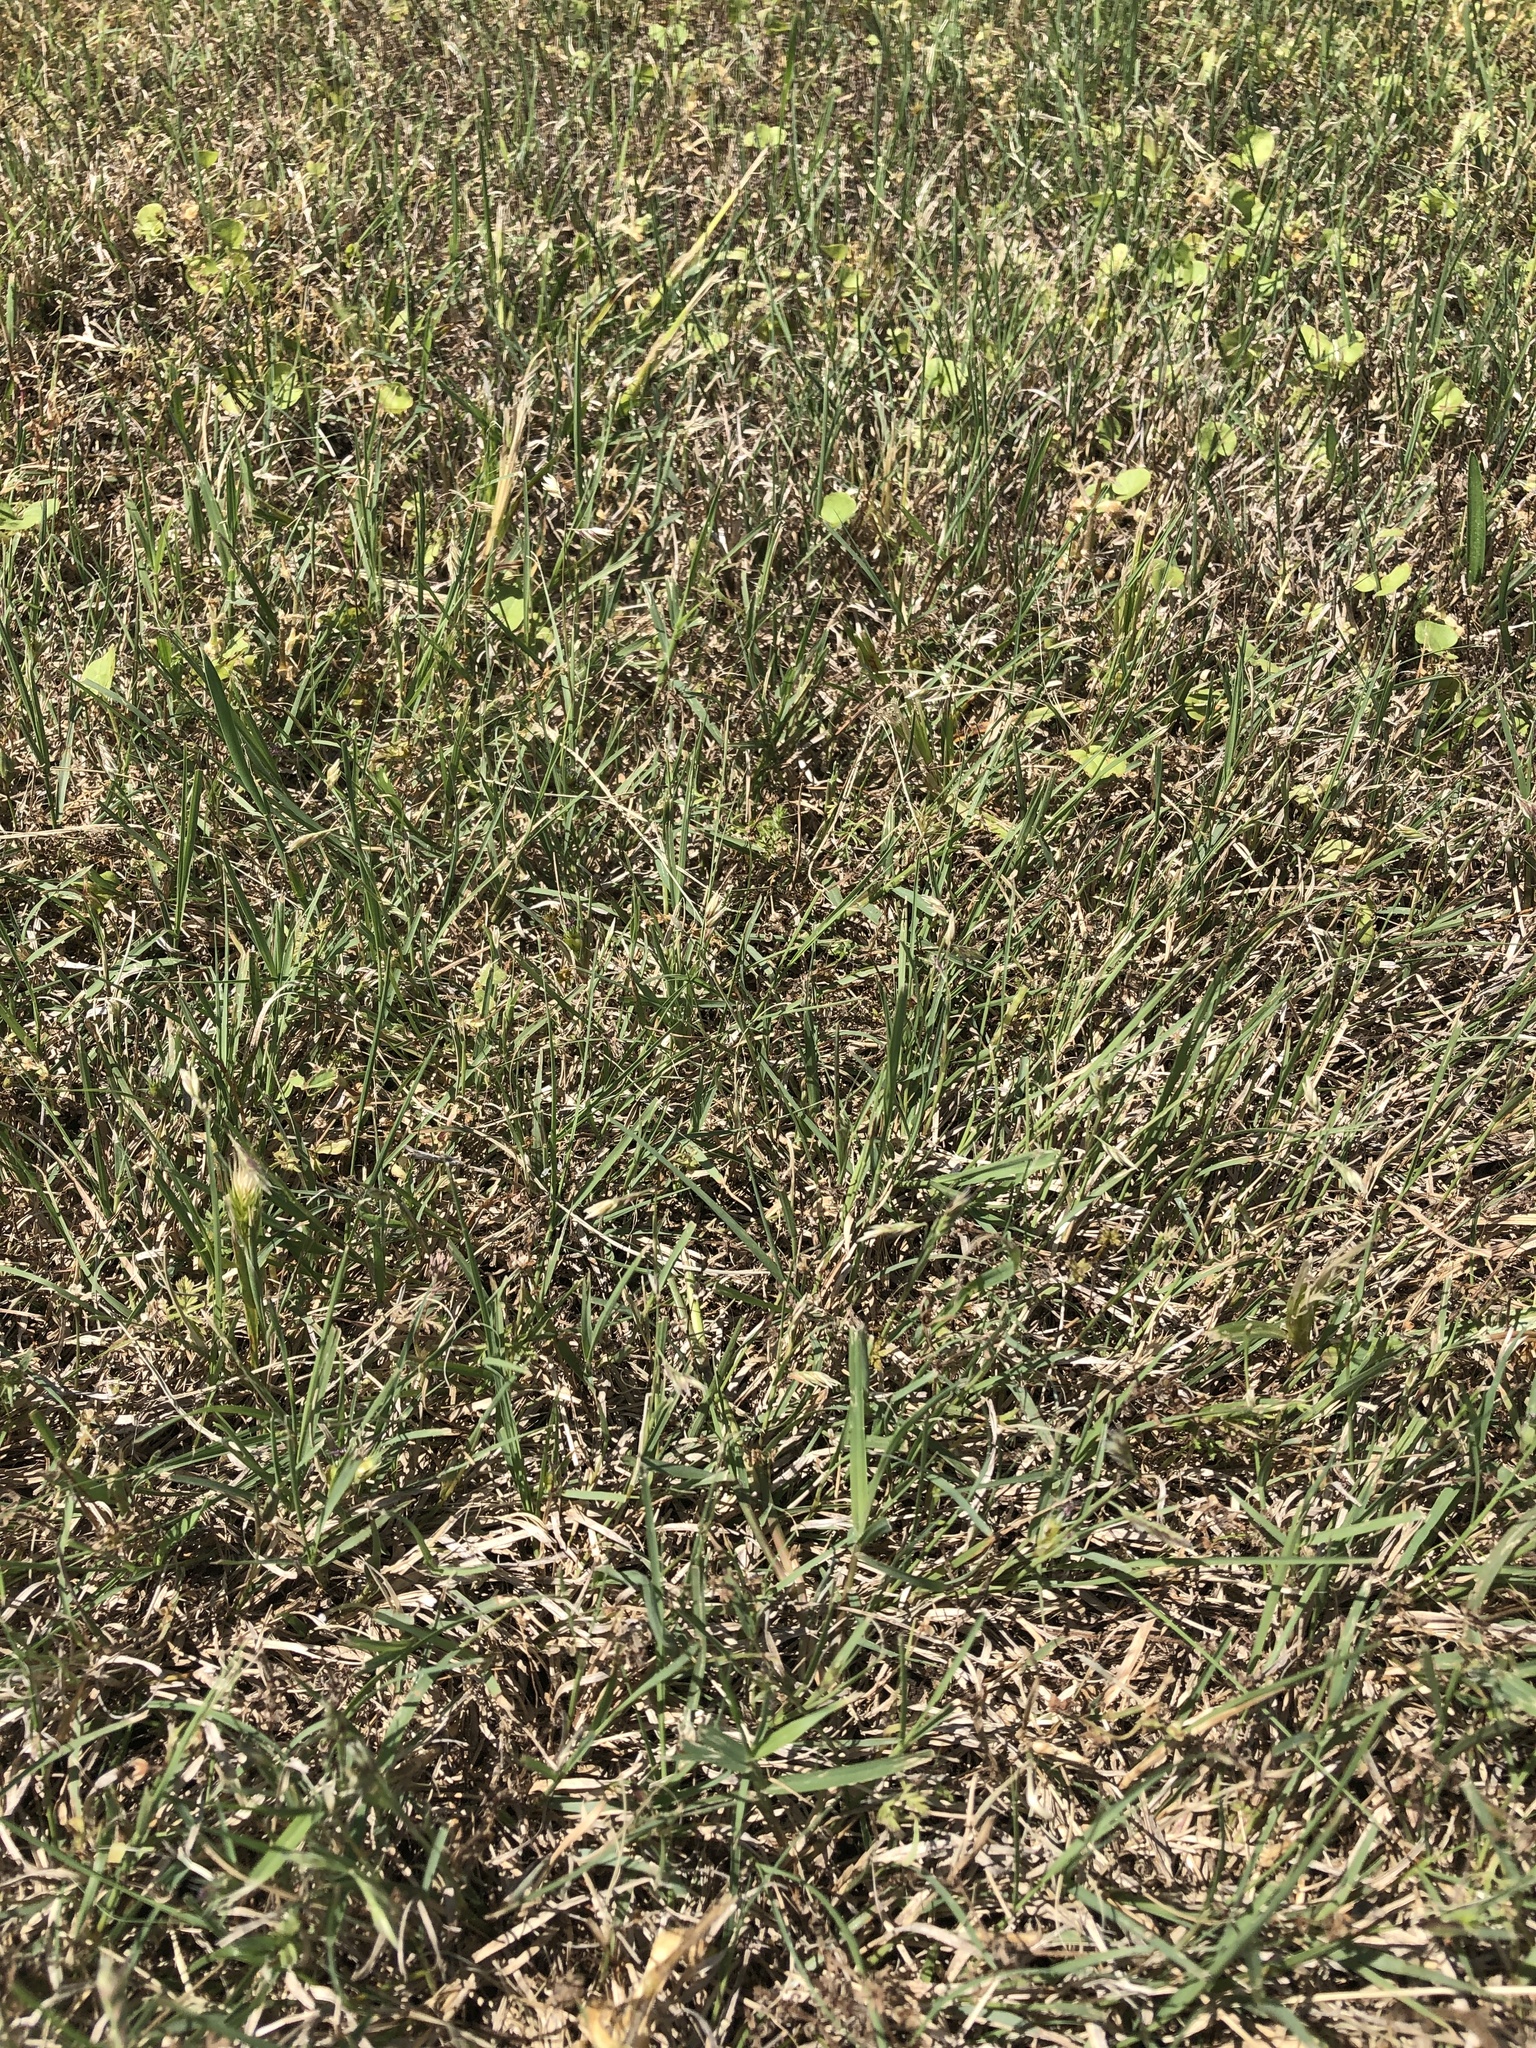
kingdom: Plantae
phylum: Tracheophyta
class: Liliopsida
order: Poales
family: Poaceae
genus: Bouteloua
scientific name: Bouteloua dactyloides
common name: Buffalo grass
